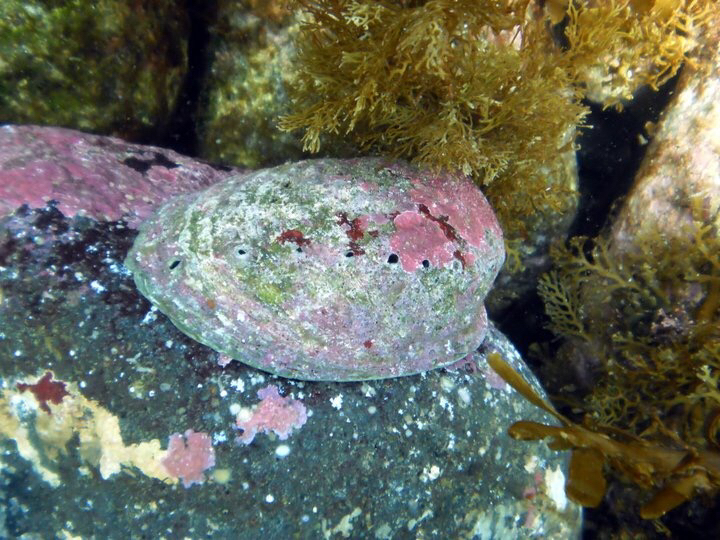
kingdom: Animalia
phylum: Mollusca
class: Gastropoda
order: Lepetellida
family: Haliotidae
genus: Haliotis
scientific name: Haliotis iris
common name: Abalone
